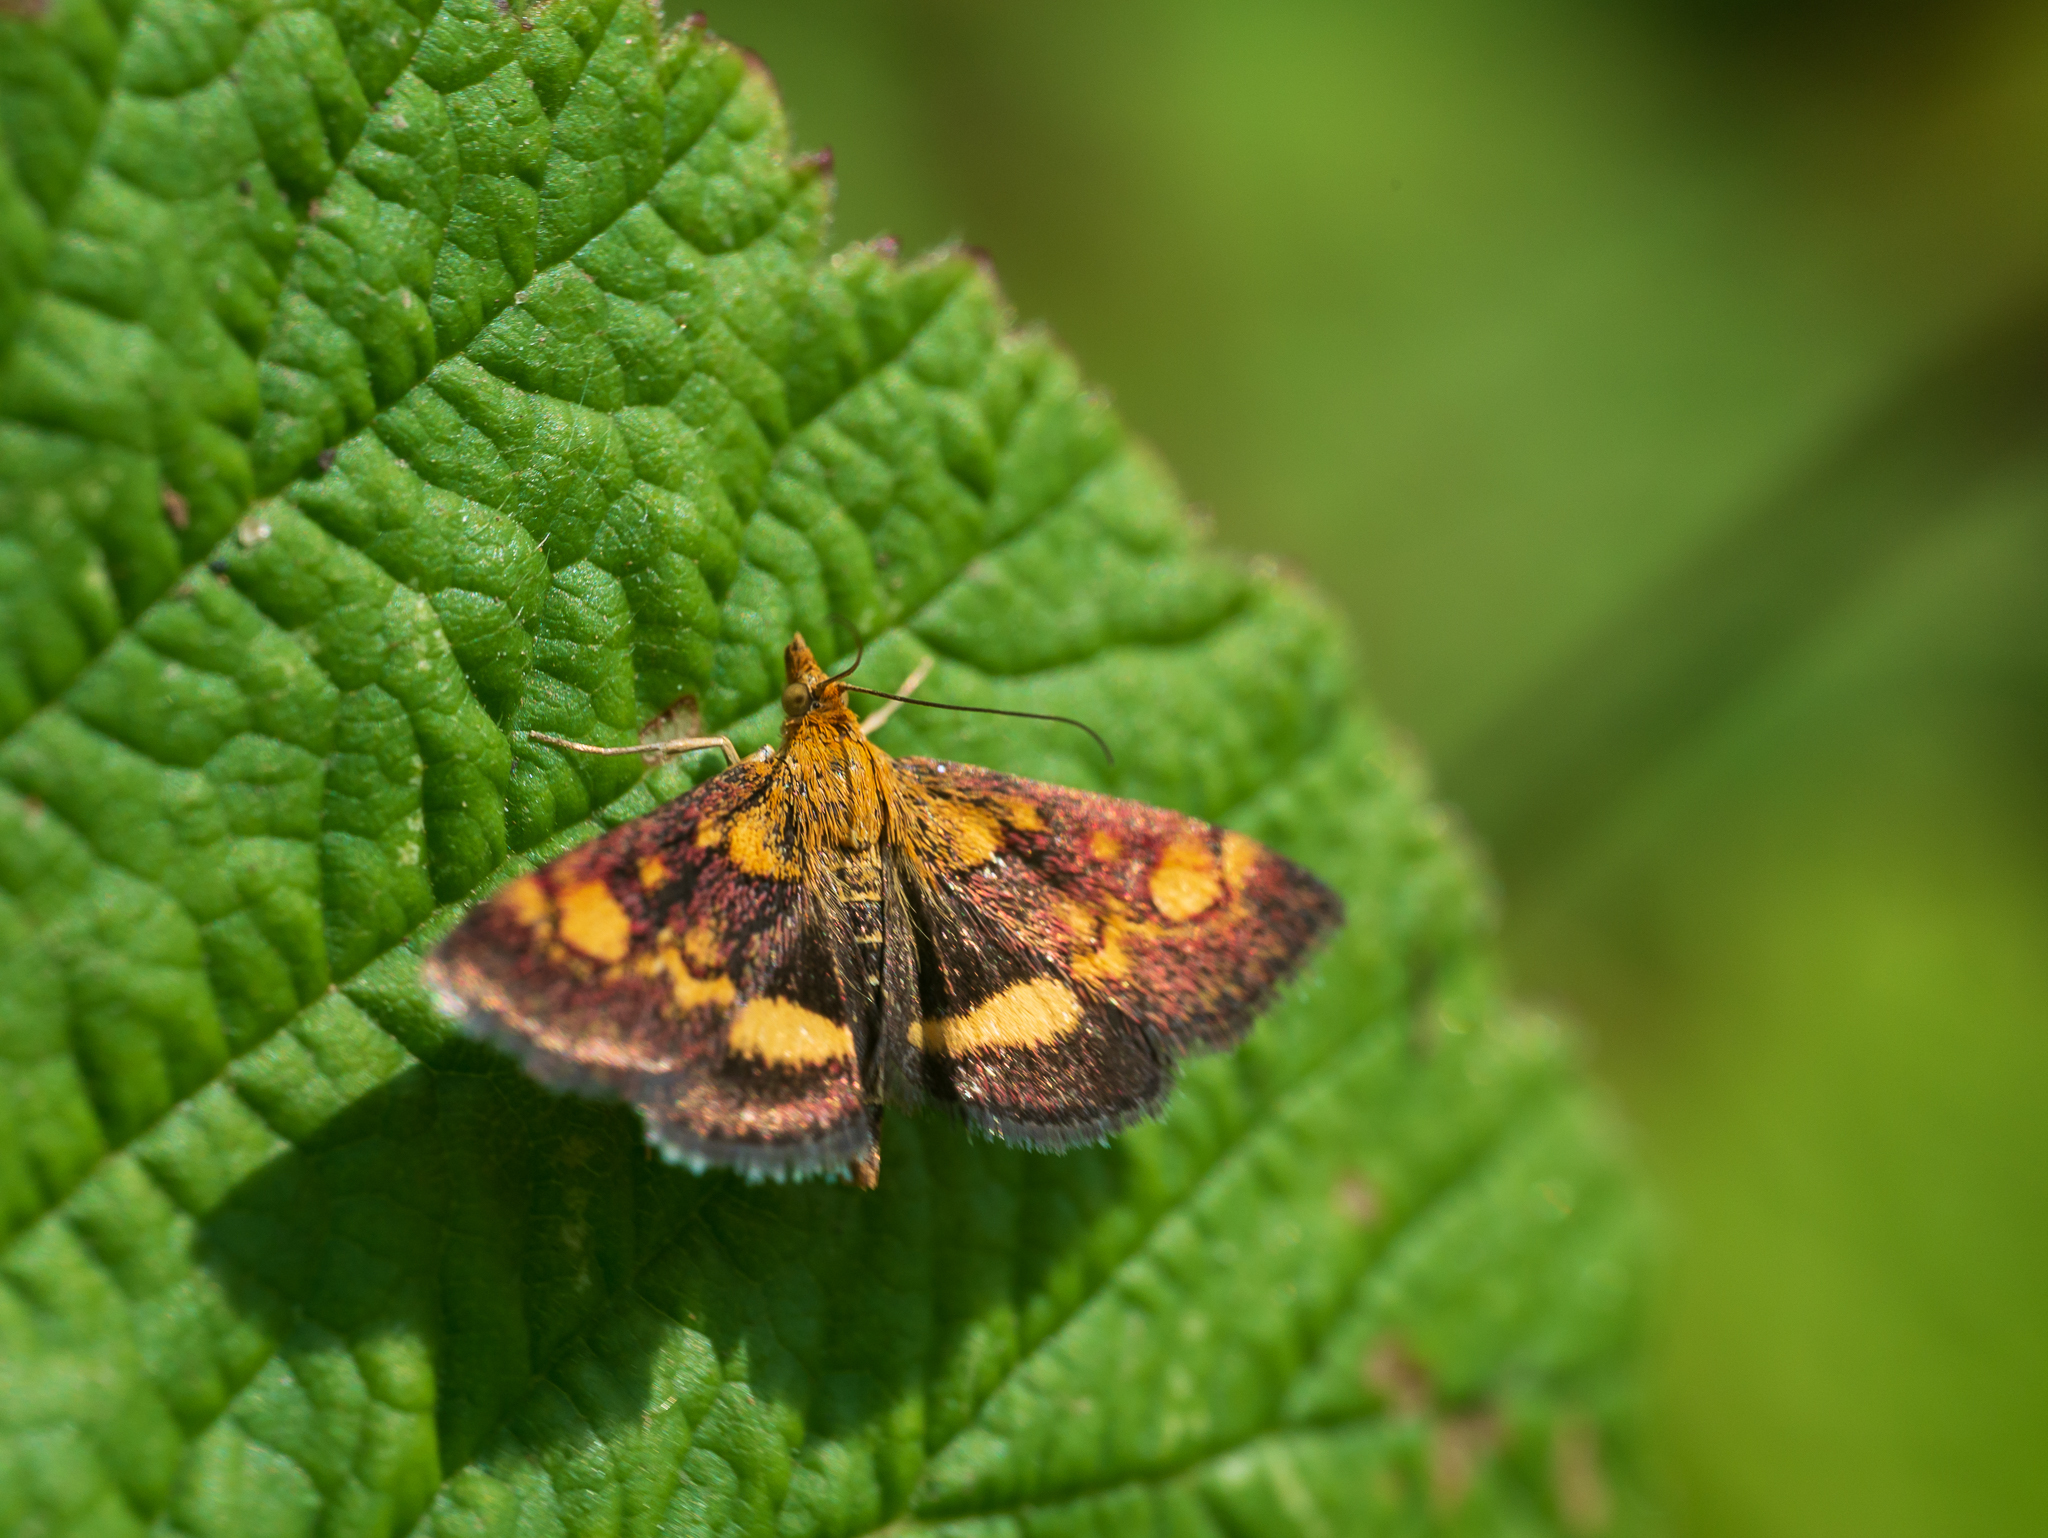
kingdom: Animalia
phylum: Arthropoda
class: Insecta
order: Lepidoptera
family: Crambidae
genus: Pyrausta
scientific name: Pyrausta aurata
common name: Small purple & gold
